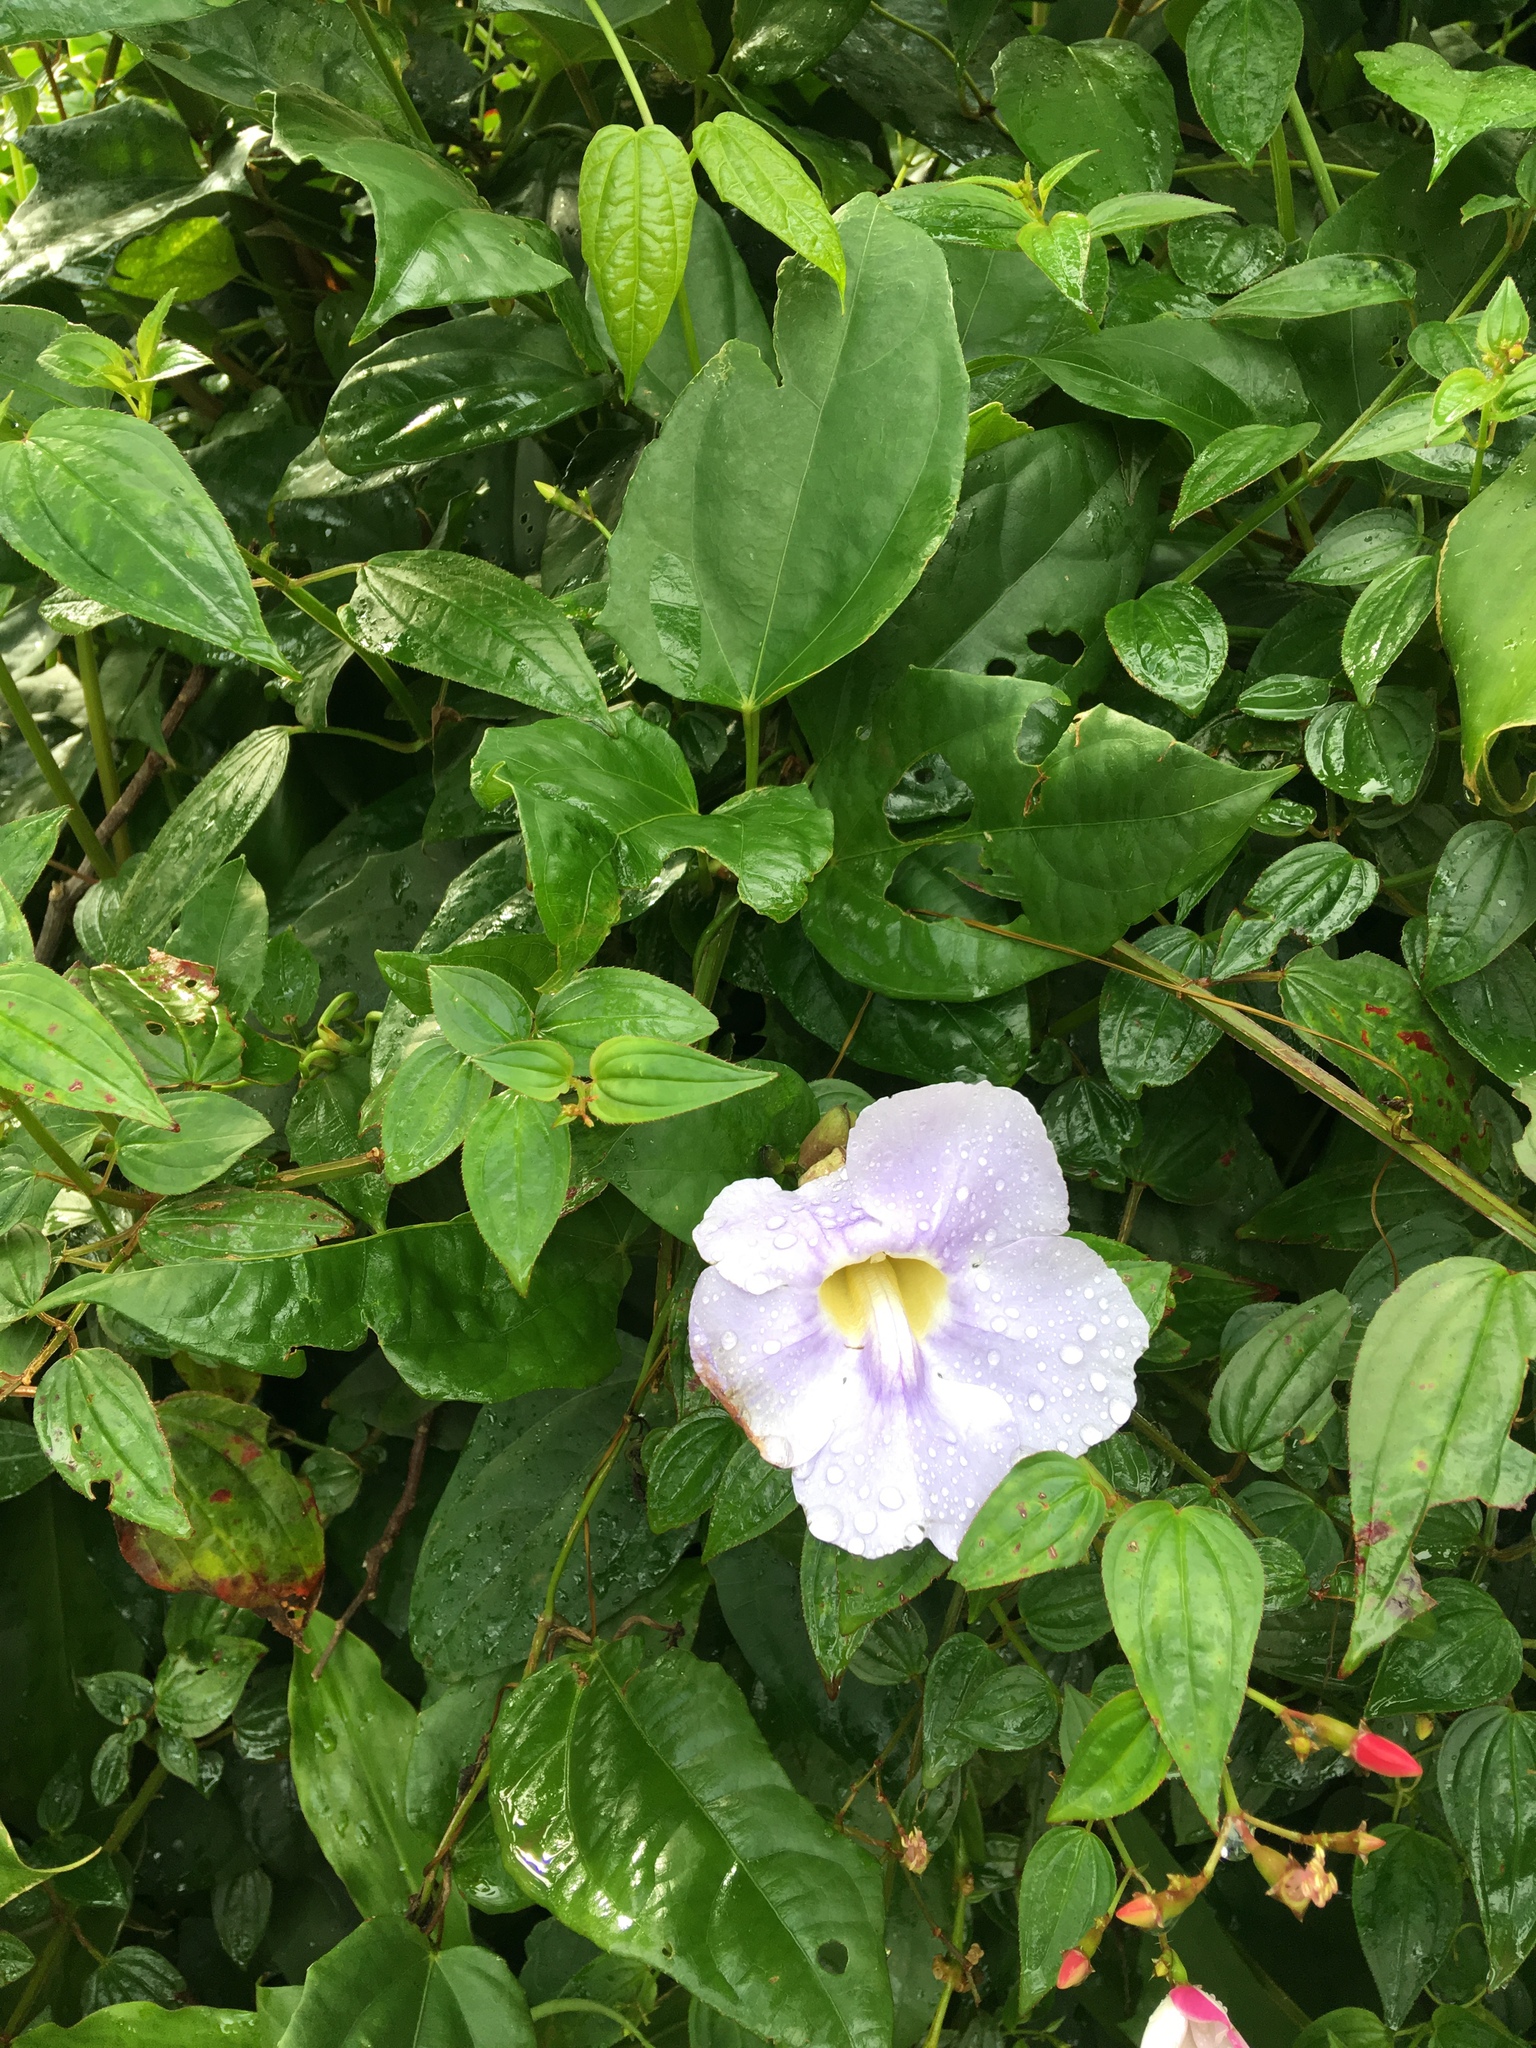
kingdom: Plantae
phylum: Tracheophyta
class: Magnoliopsida
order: Lamiales
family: Acanthaceae
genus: Thunbergia
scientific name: Thunbergia grandiflora
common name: Bengal trumpet
